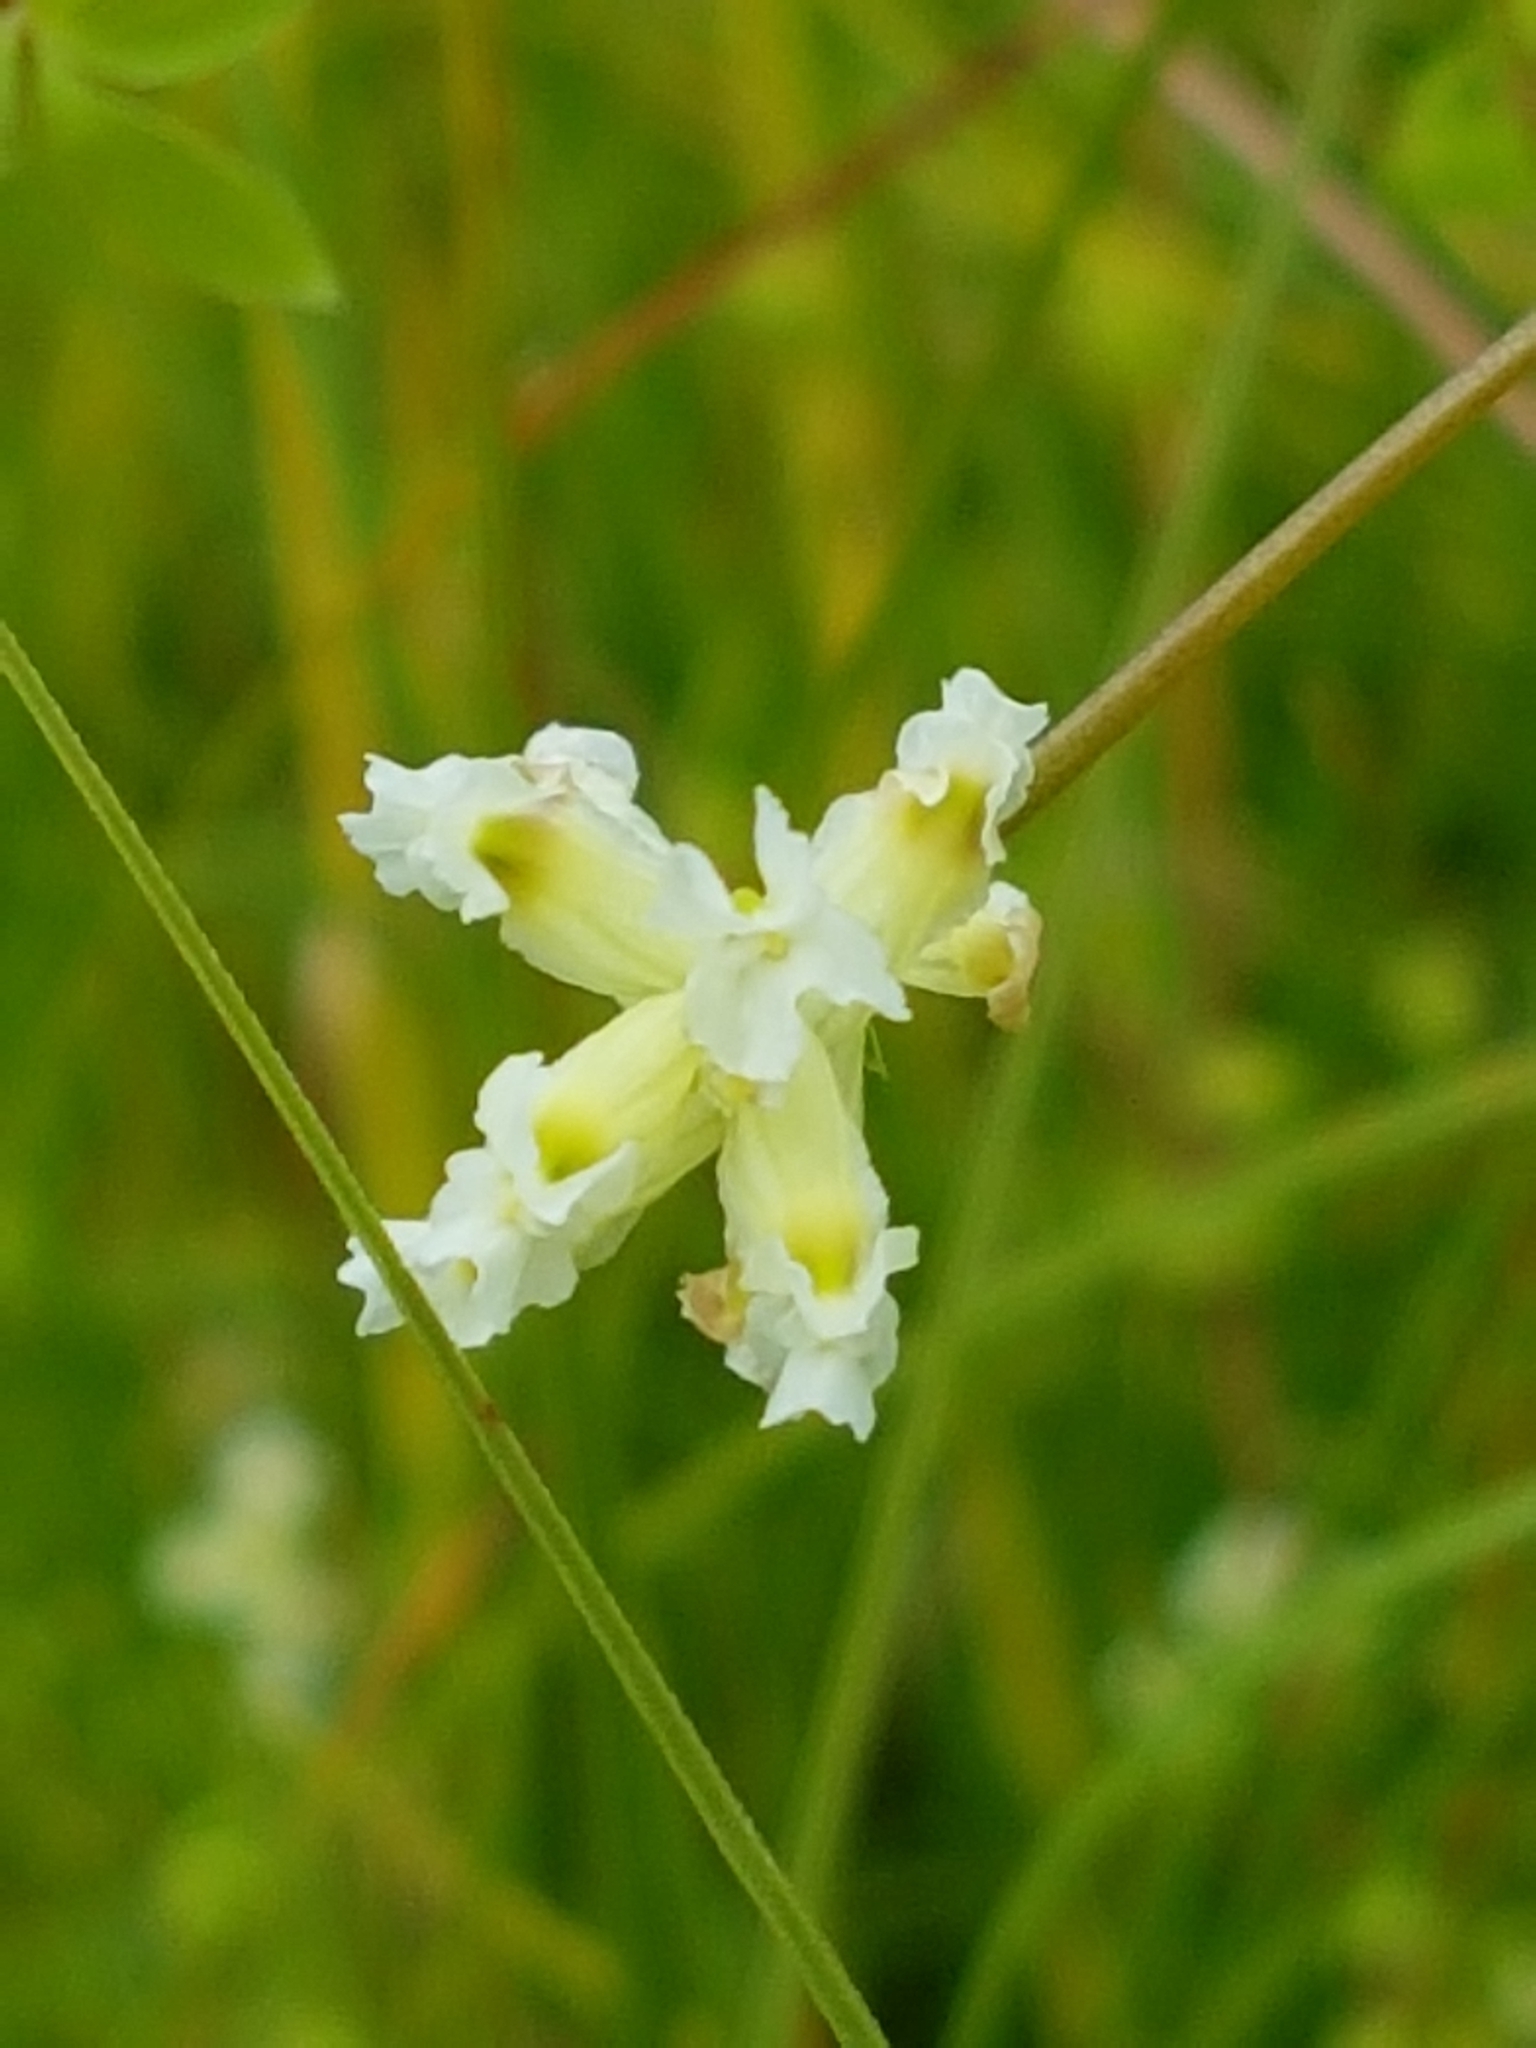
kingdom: Plantae
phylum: Tracheophyta
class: Magnoliopsida
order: Ranunculales
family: Papaveraceae
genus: Ceratocapnos
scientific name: Ceratocapnos claviculata
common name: Climbing corydalis
